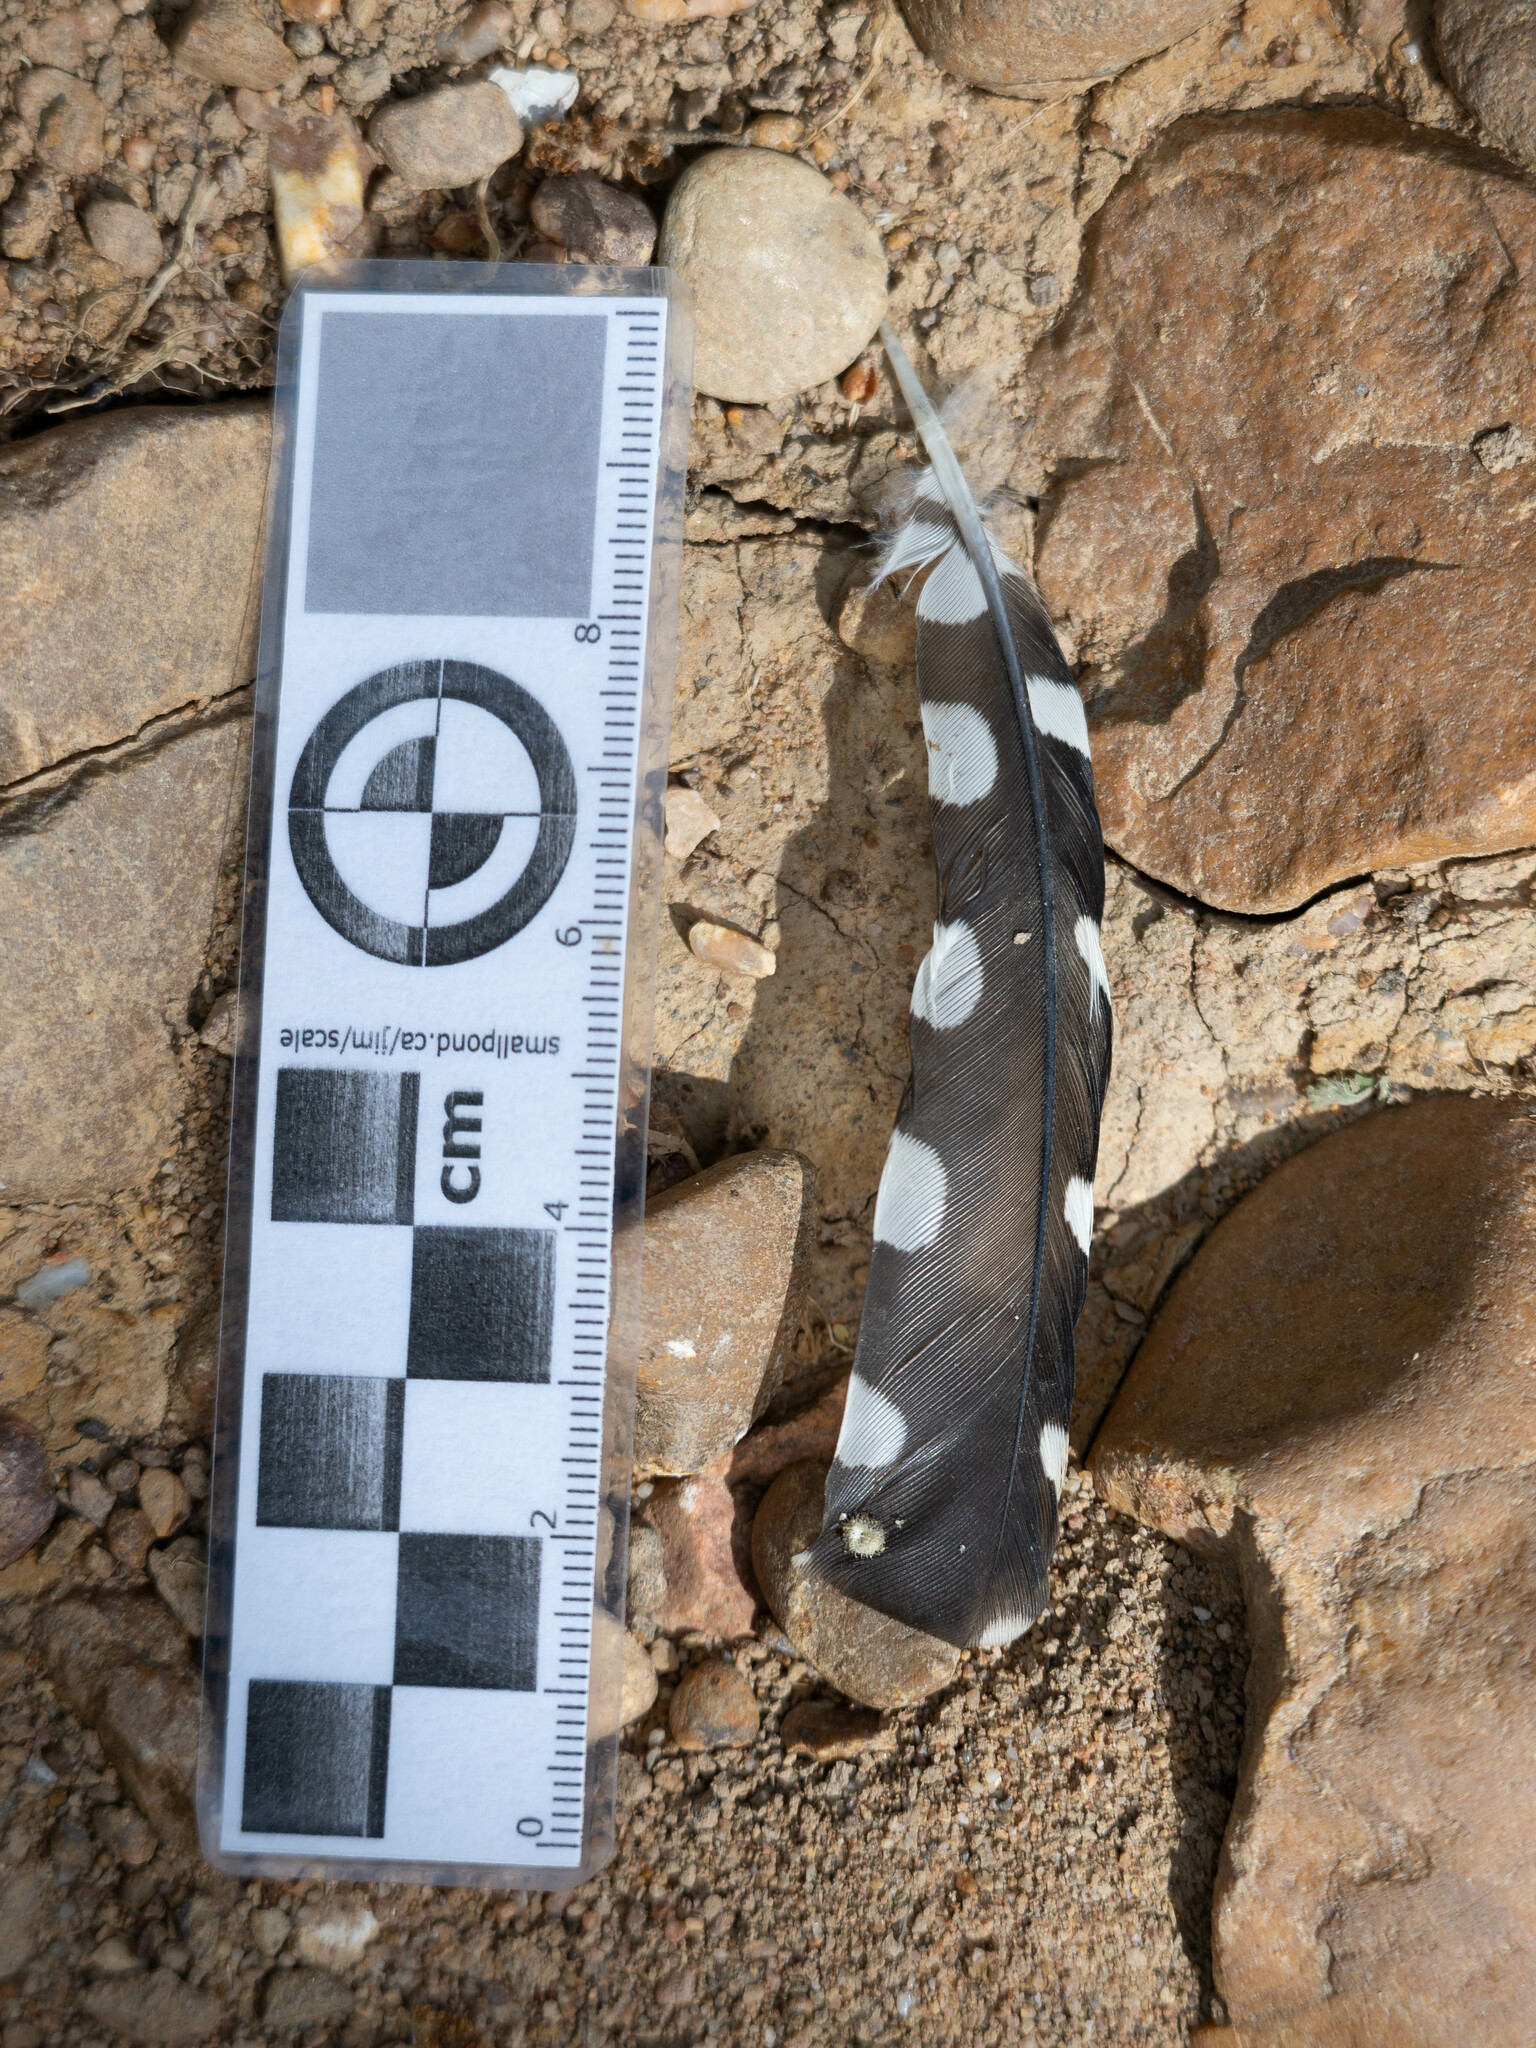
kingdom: Animalia
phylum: Chordata
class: Aves
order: Piciformes
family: Picidae
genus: Dendrocopos
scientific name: Dendrocopos major
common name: Great spotted woodpecker
